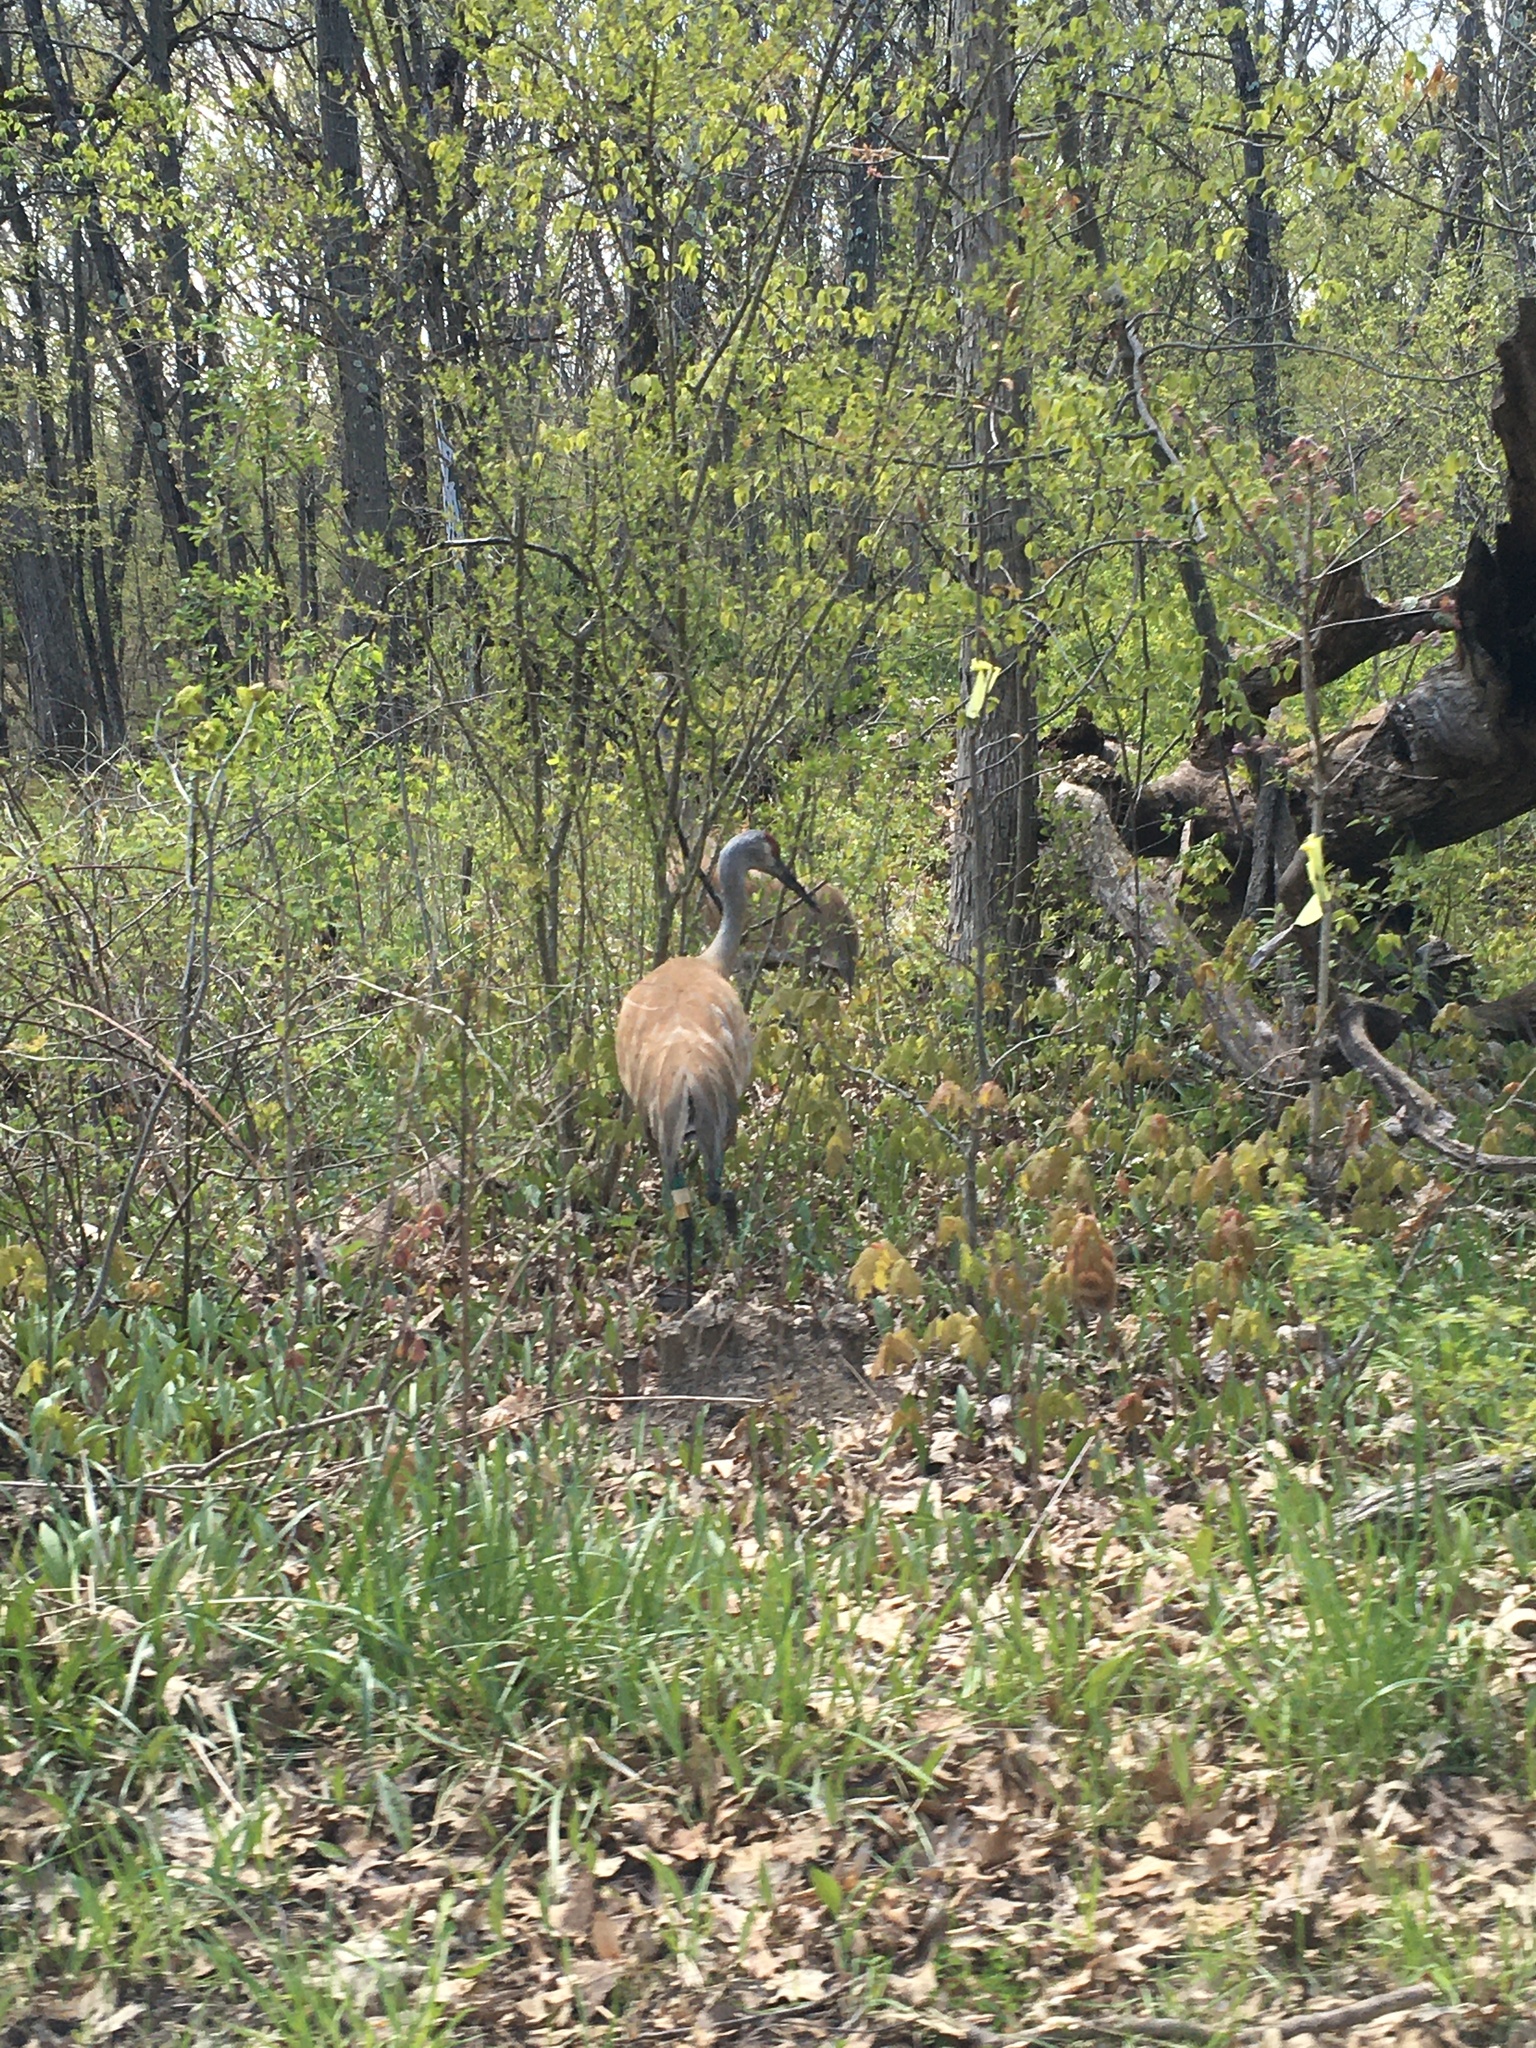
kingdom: Animalia
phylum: Chordata
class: Aves
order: Gruiformes
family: Gruidae
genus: Grus
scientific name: Grus canadensis
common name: Sandhill crane
